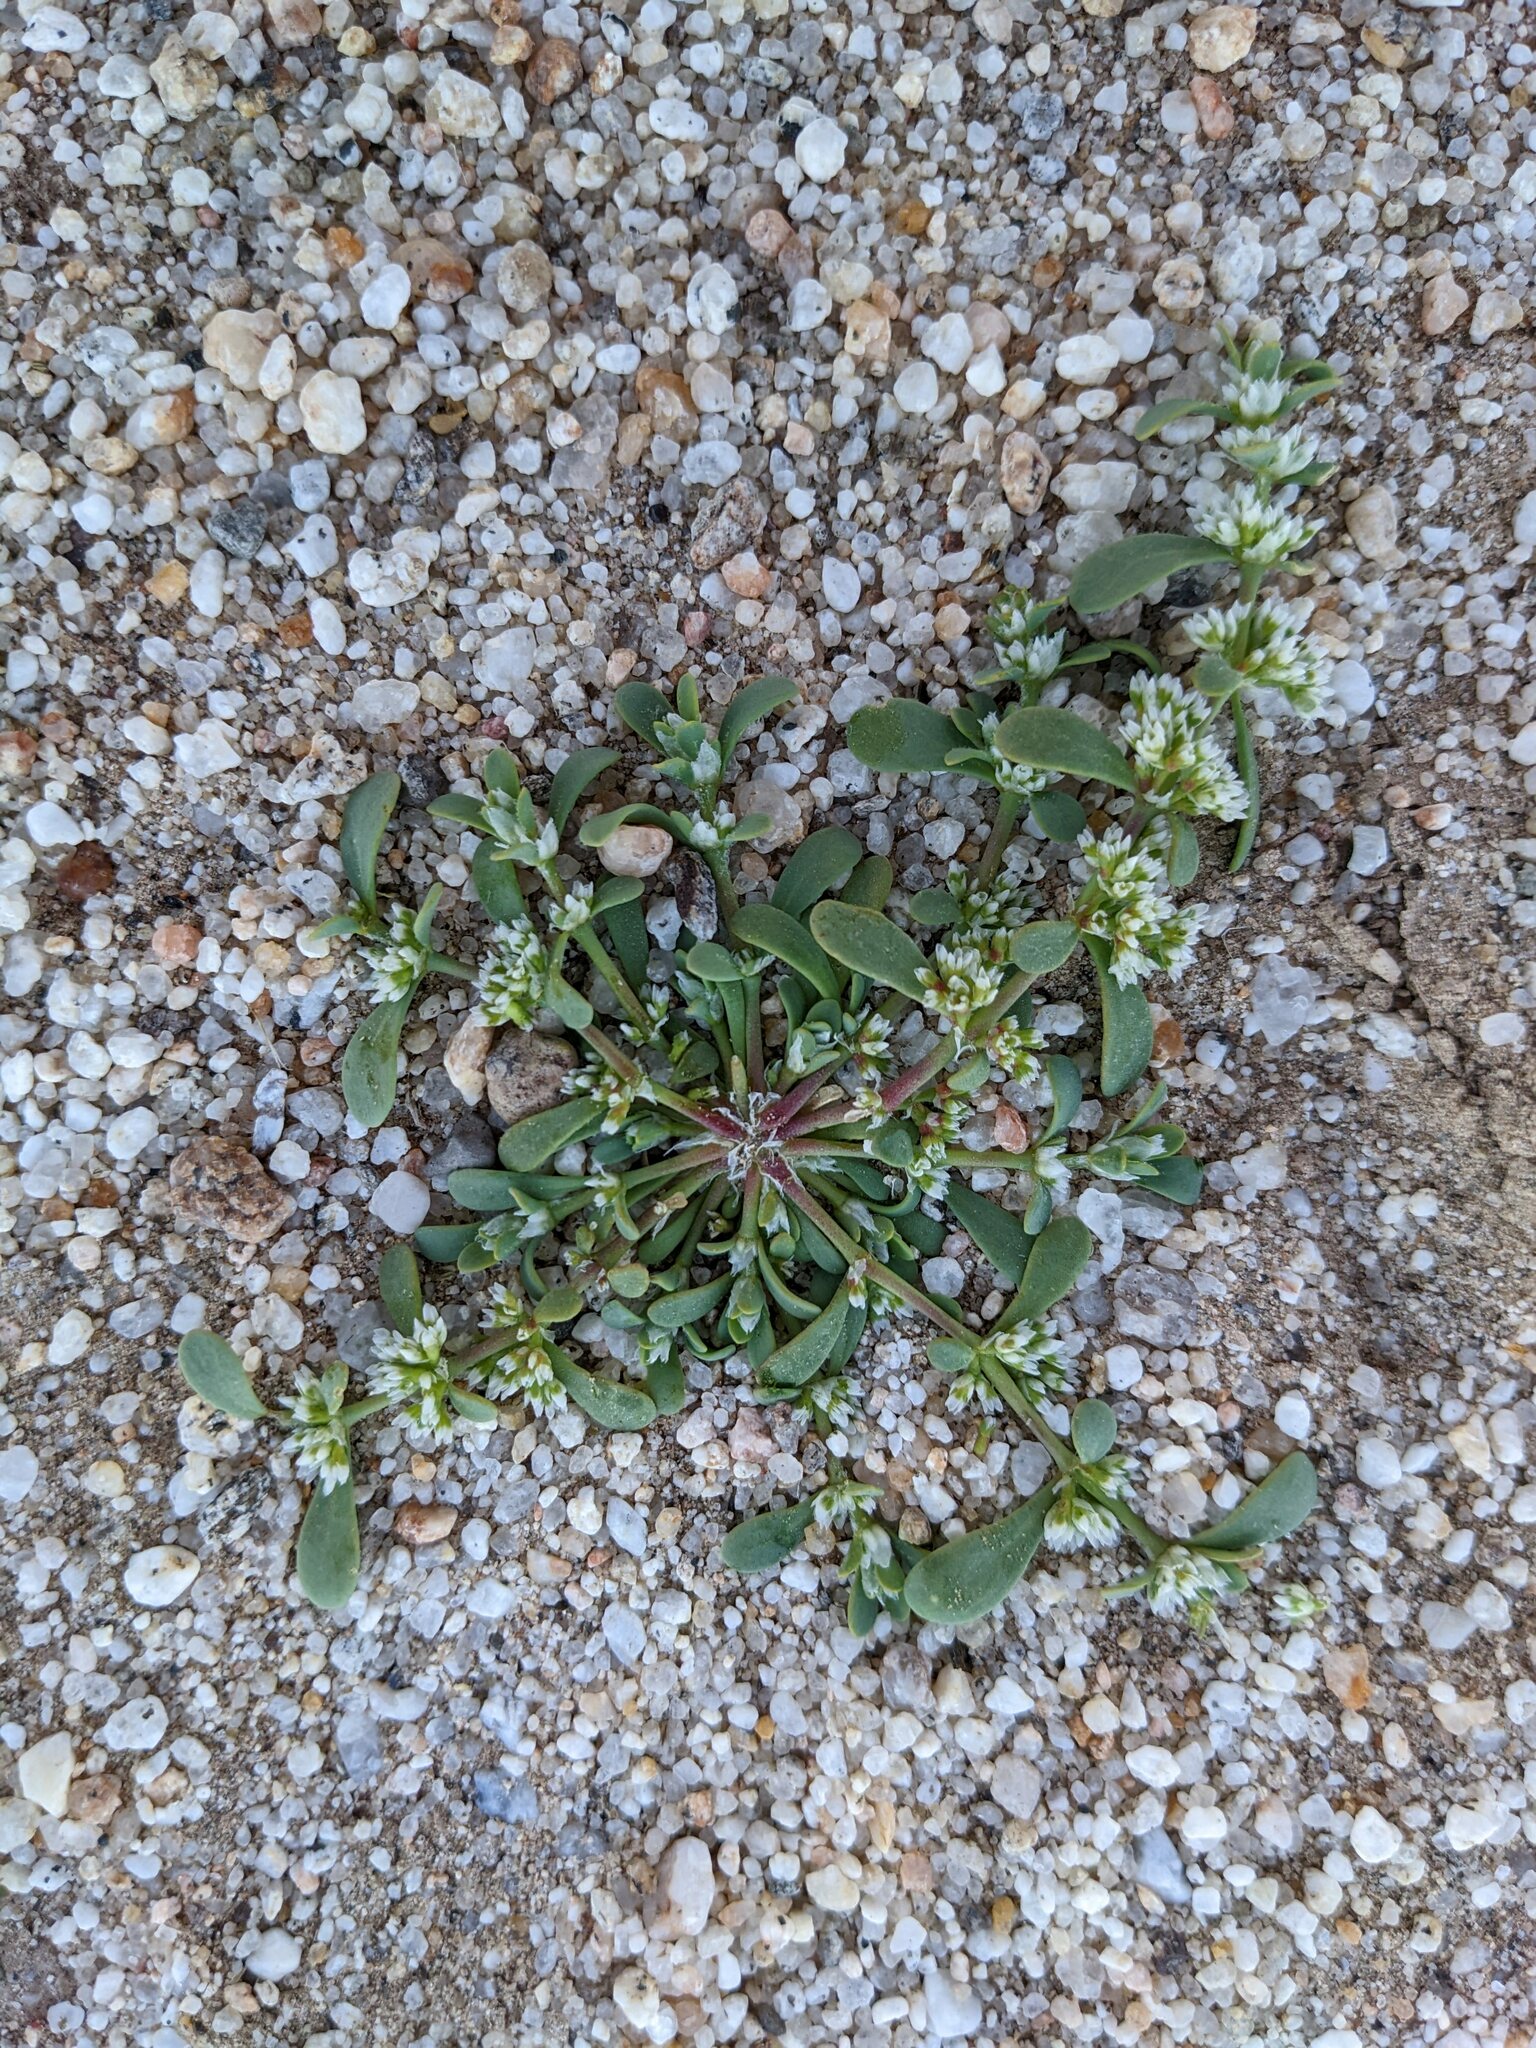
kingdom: Plantae
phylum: Tracheophyta
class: Magnoliopsida
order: Caryophyllales
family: Caryophyllaceae
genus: Achyronychia
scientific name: Achyronychia cooperi
